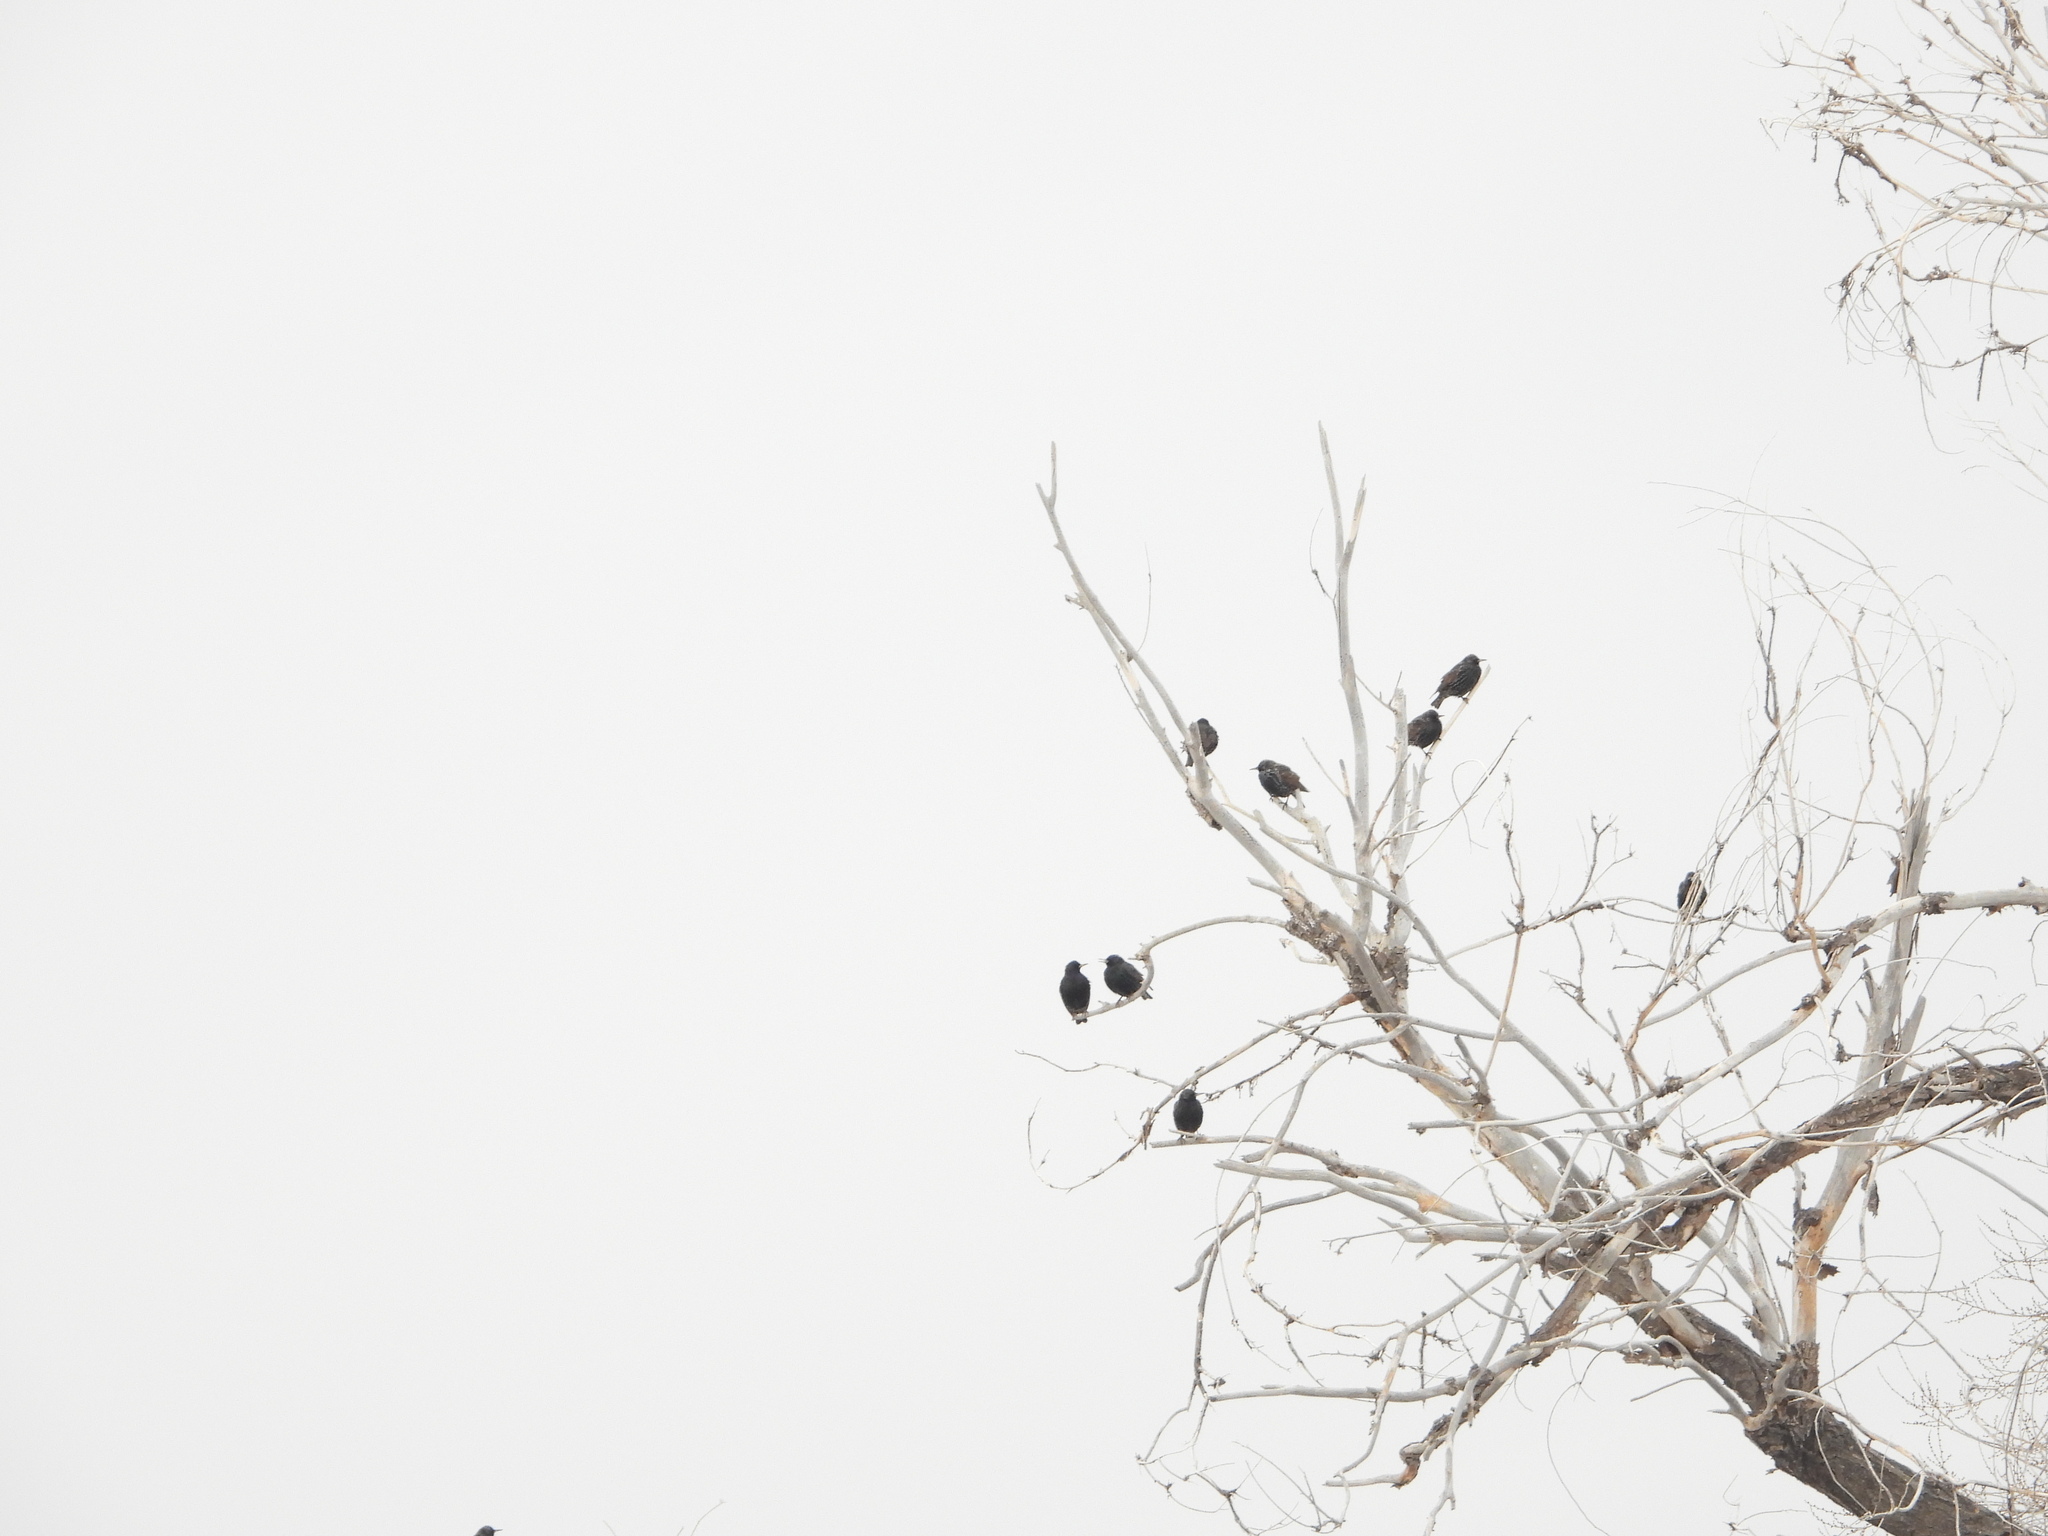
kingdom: Animalia
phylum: Chordata
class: Aves
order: Passeriformes
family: Sturnidae
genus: Sturnus
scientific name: Sturnus vulgaris
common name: Common starling
